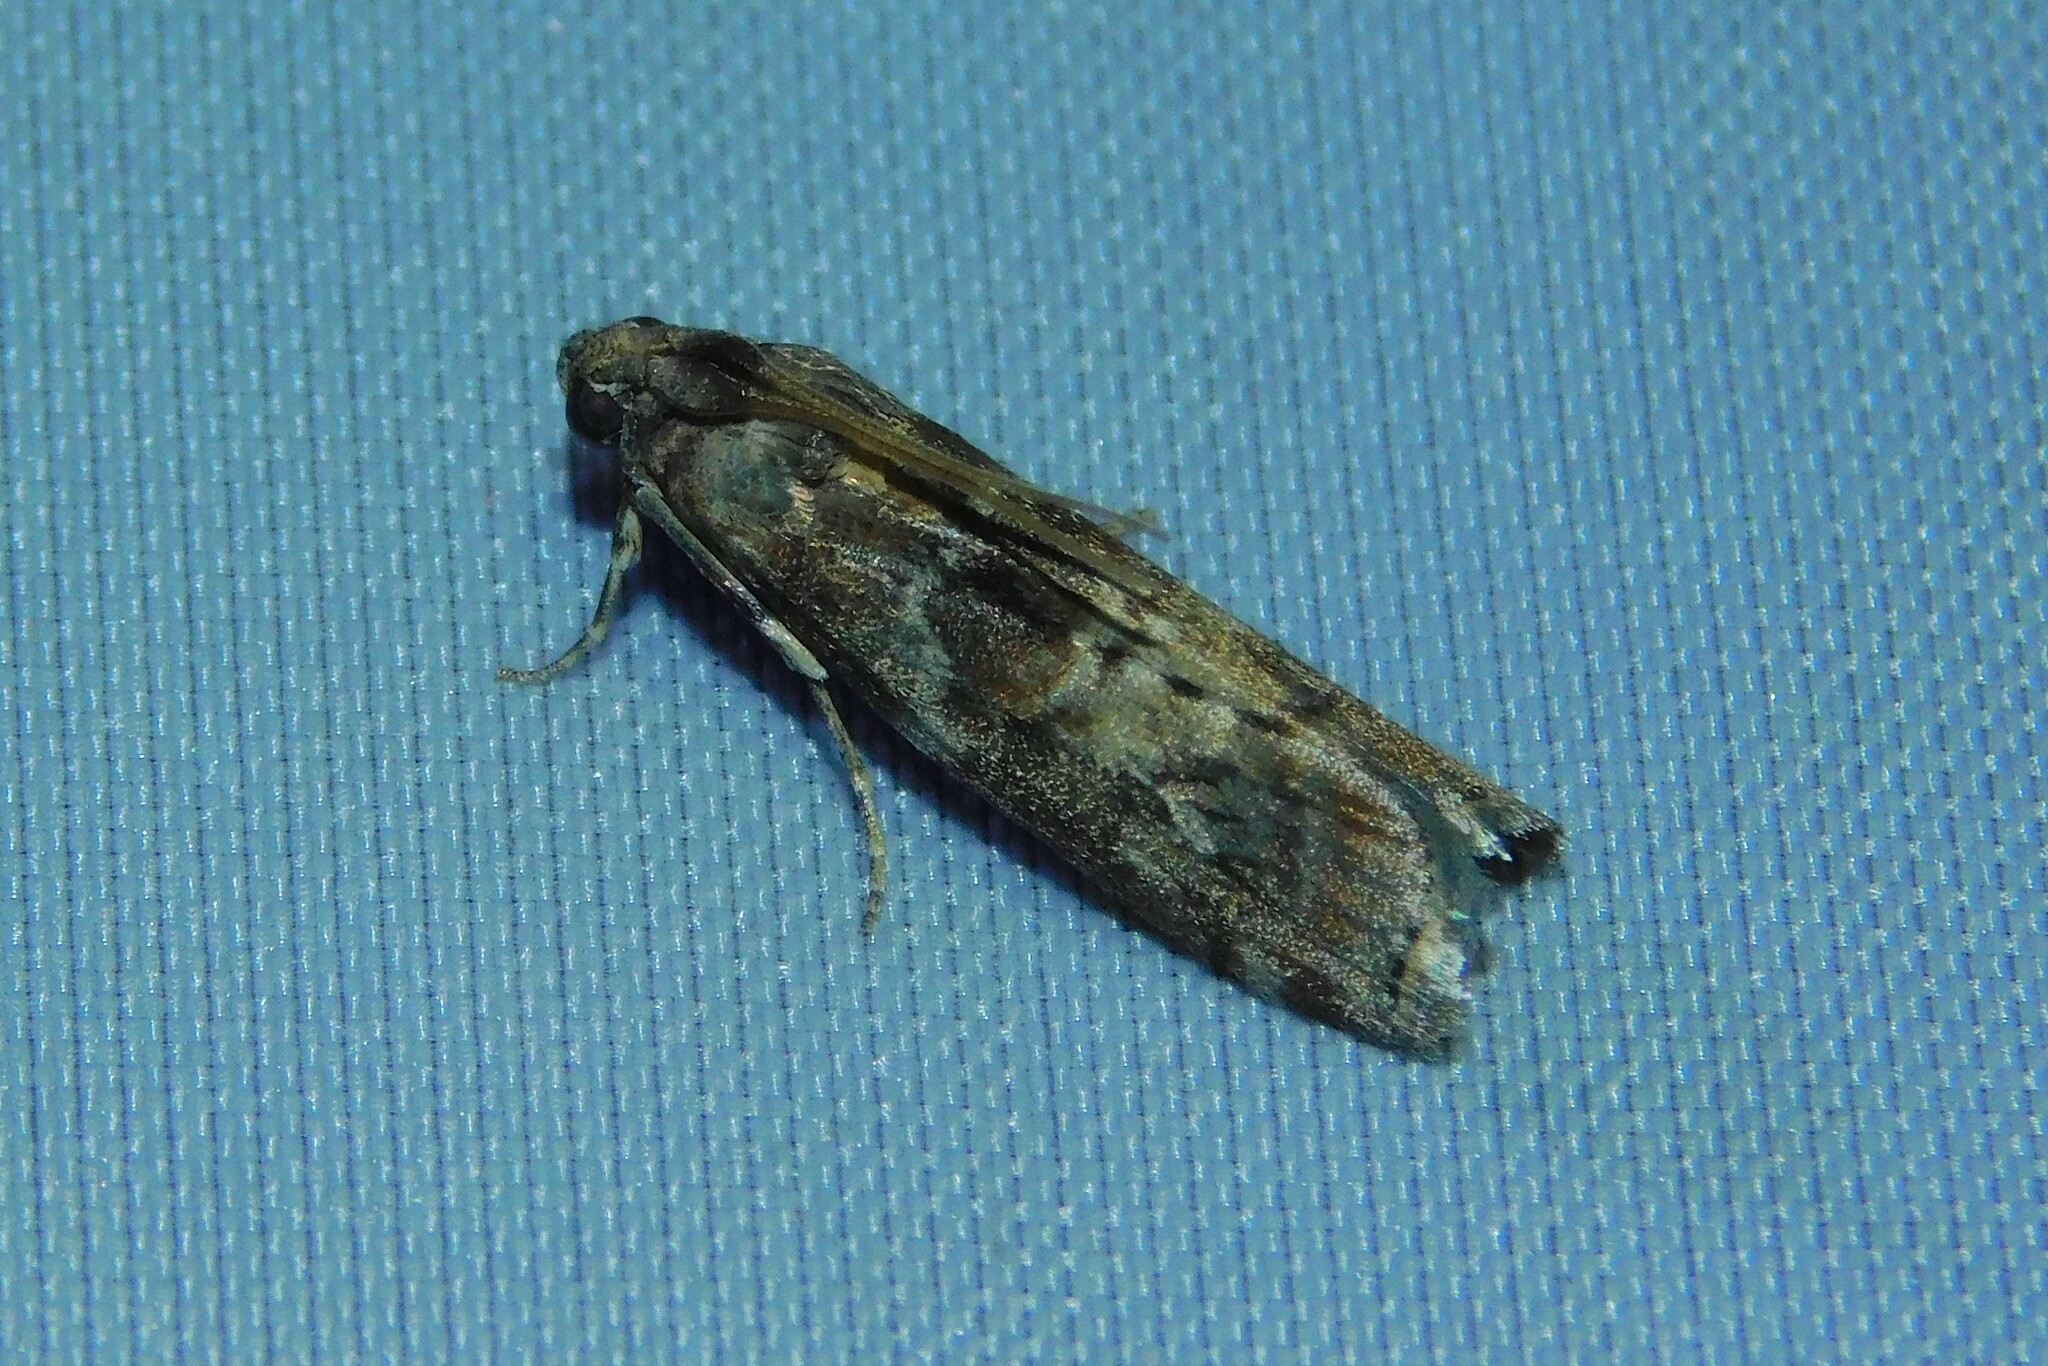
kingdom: Animalia
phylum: Arthropoda
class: Insecta
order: Lepidoptera
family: Pyralidae
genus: Phycita
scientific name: Phycita roborella
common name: Dotted oak knot-horn
